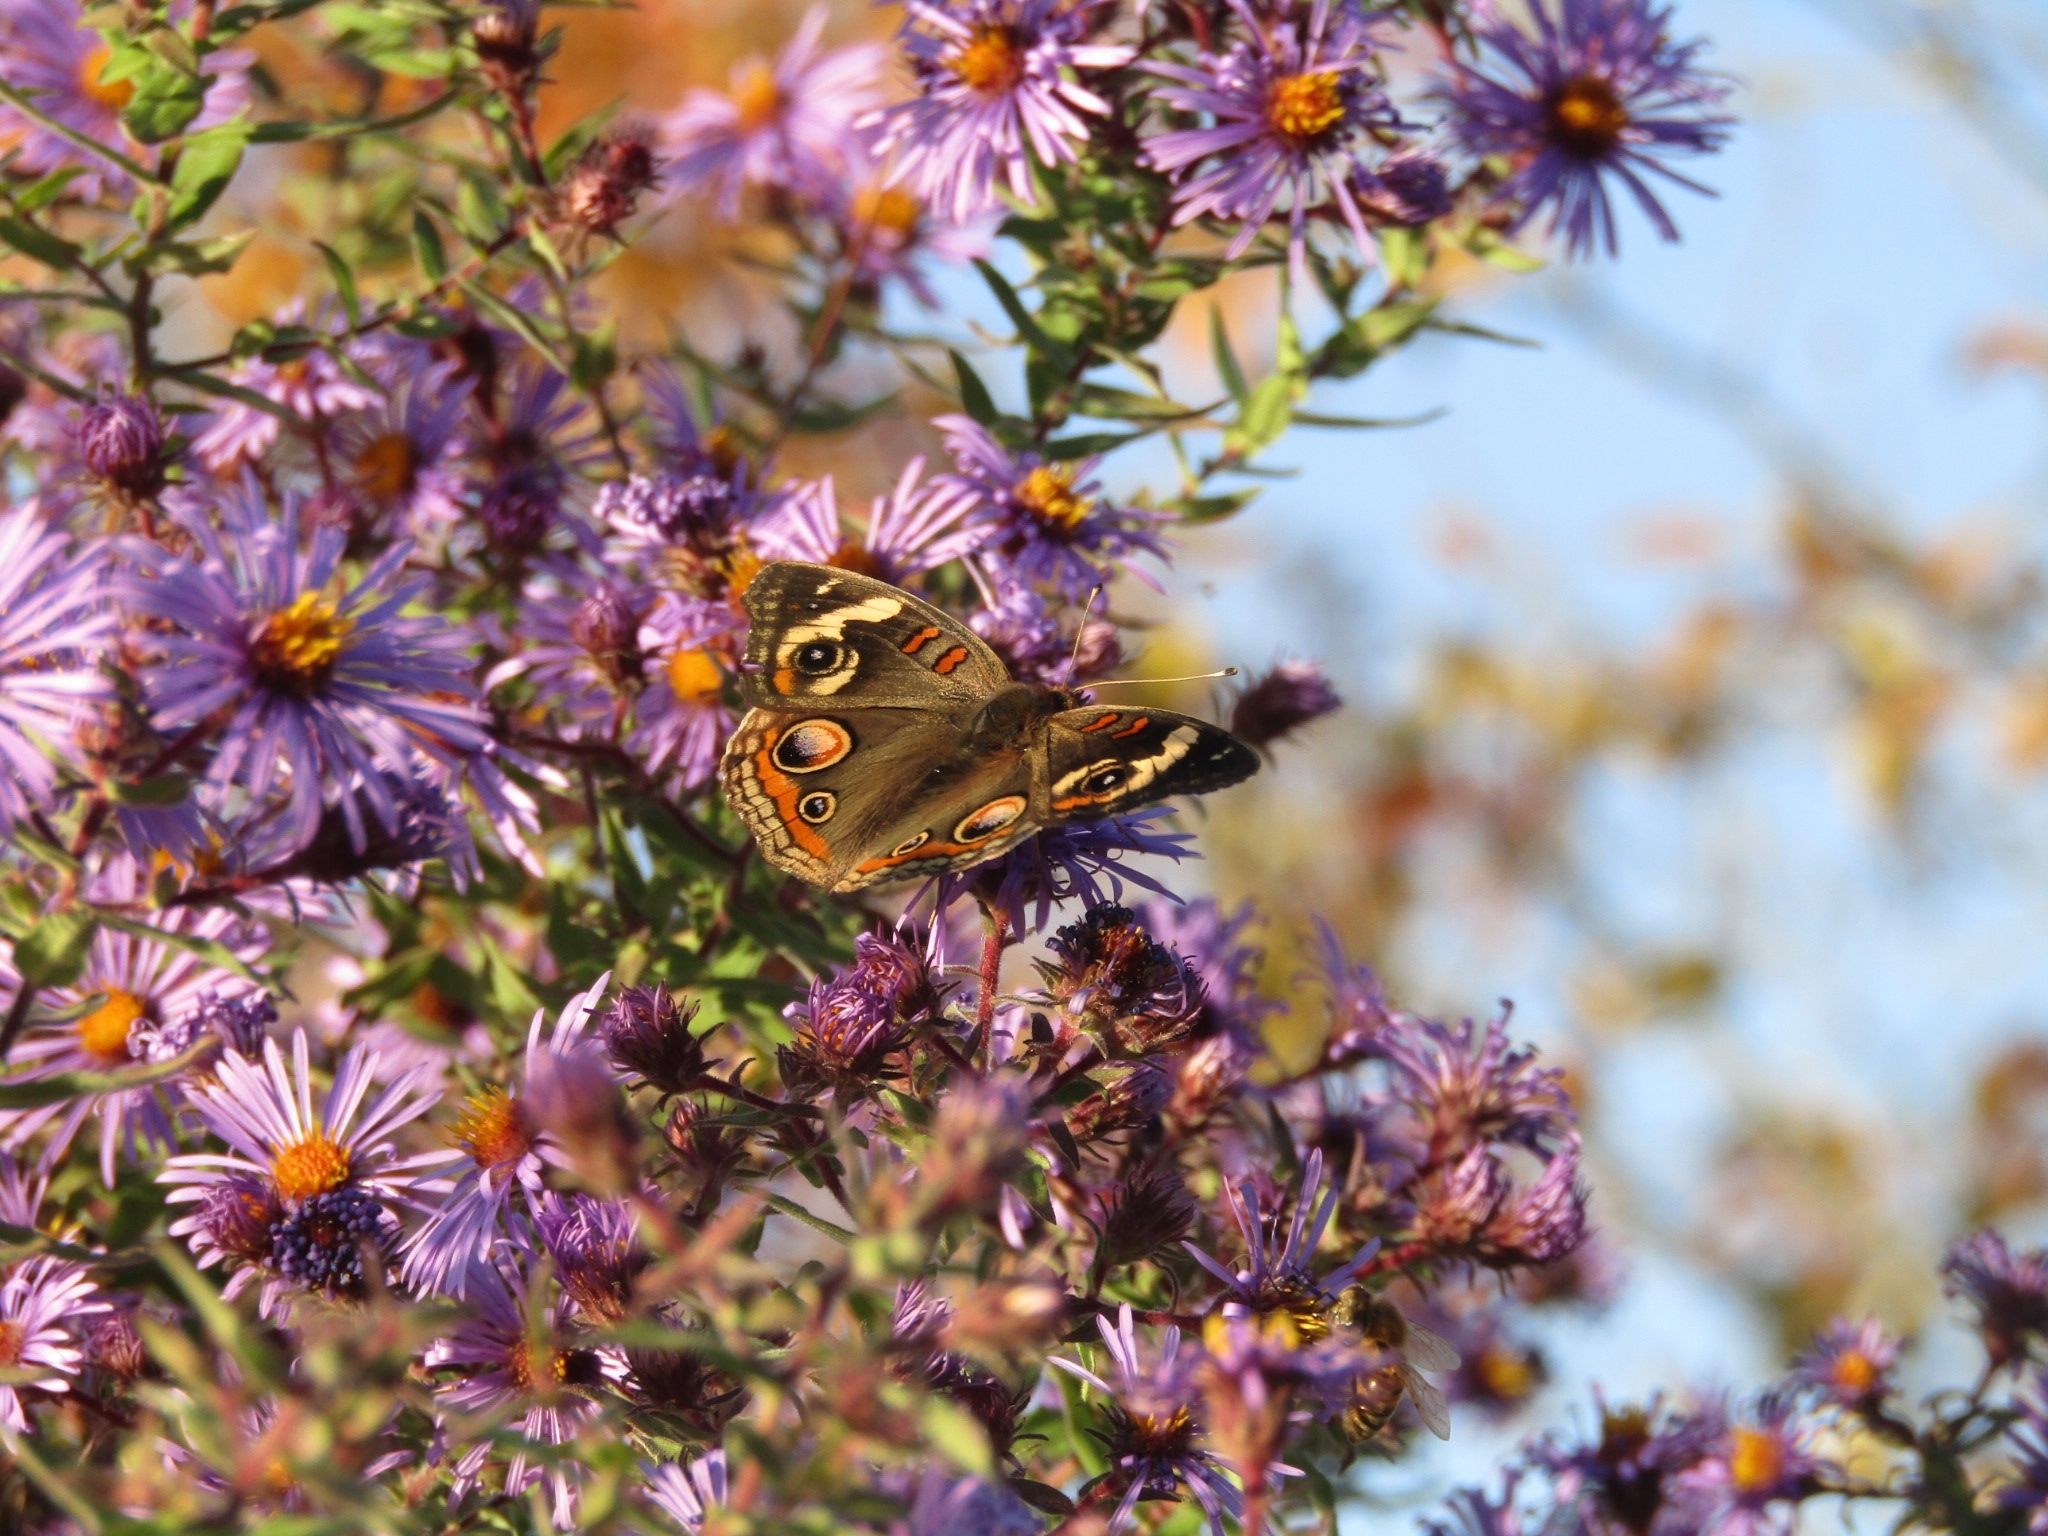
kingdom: Animalia
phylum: Arthropoda
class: Insecta
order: Lepidoptera
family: Nymphalidae
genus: Junonia
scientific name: Junonia coenia
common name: Common buckeye
